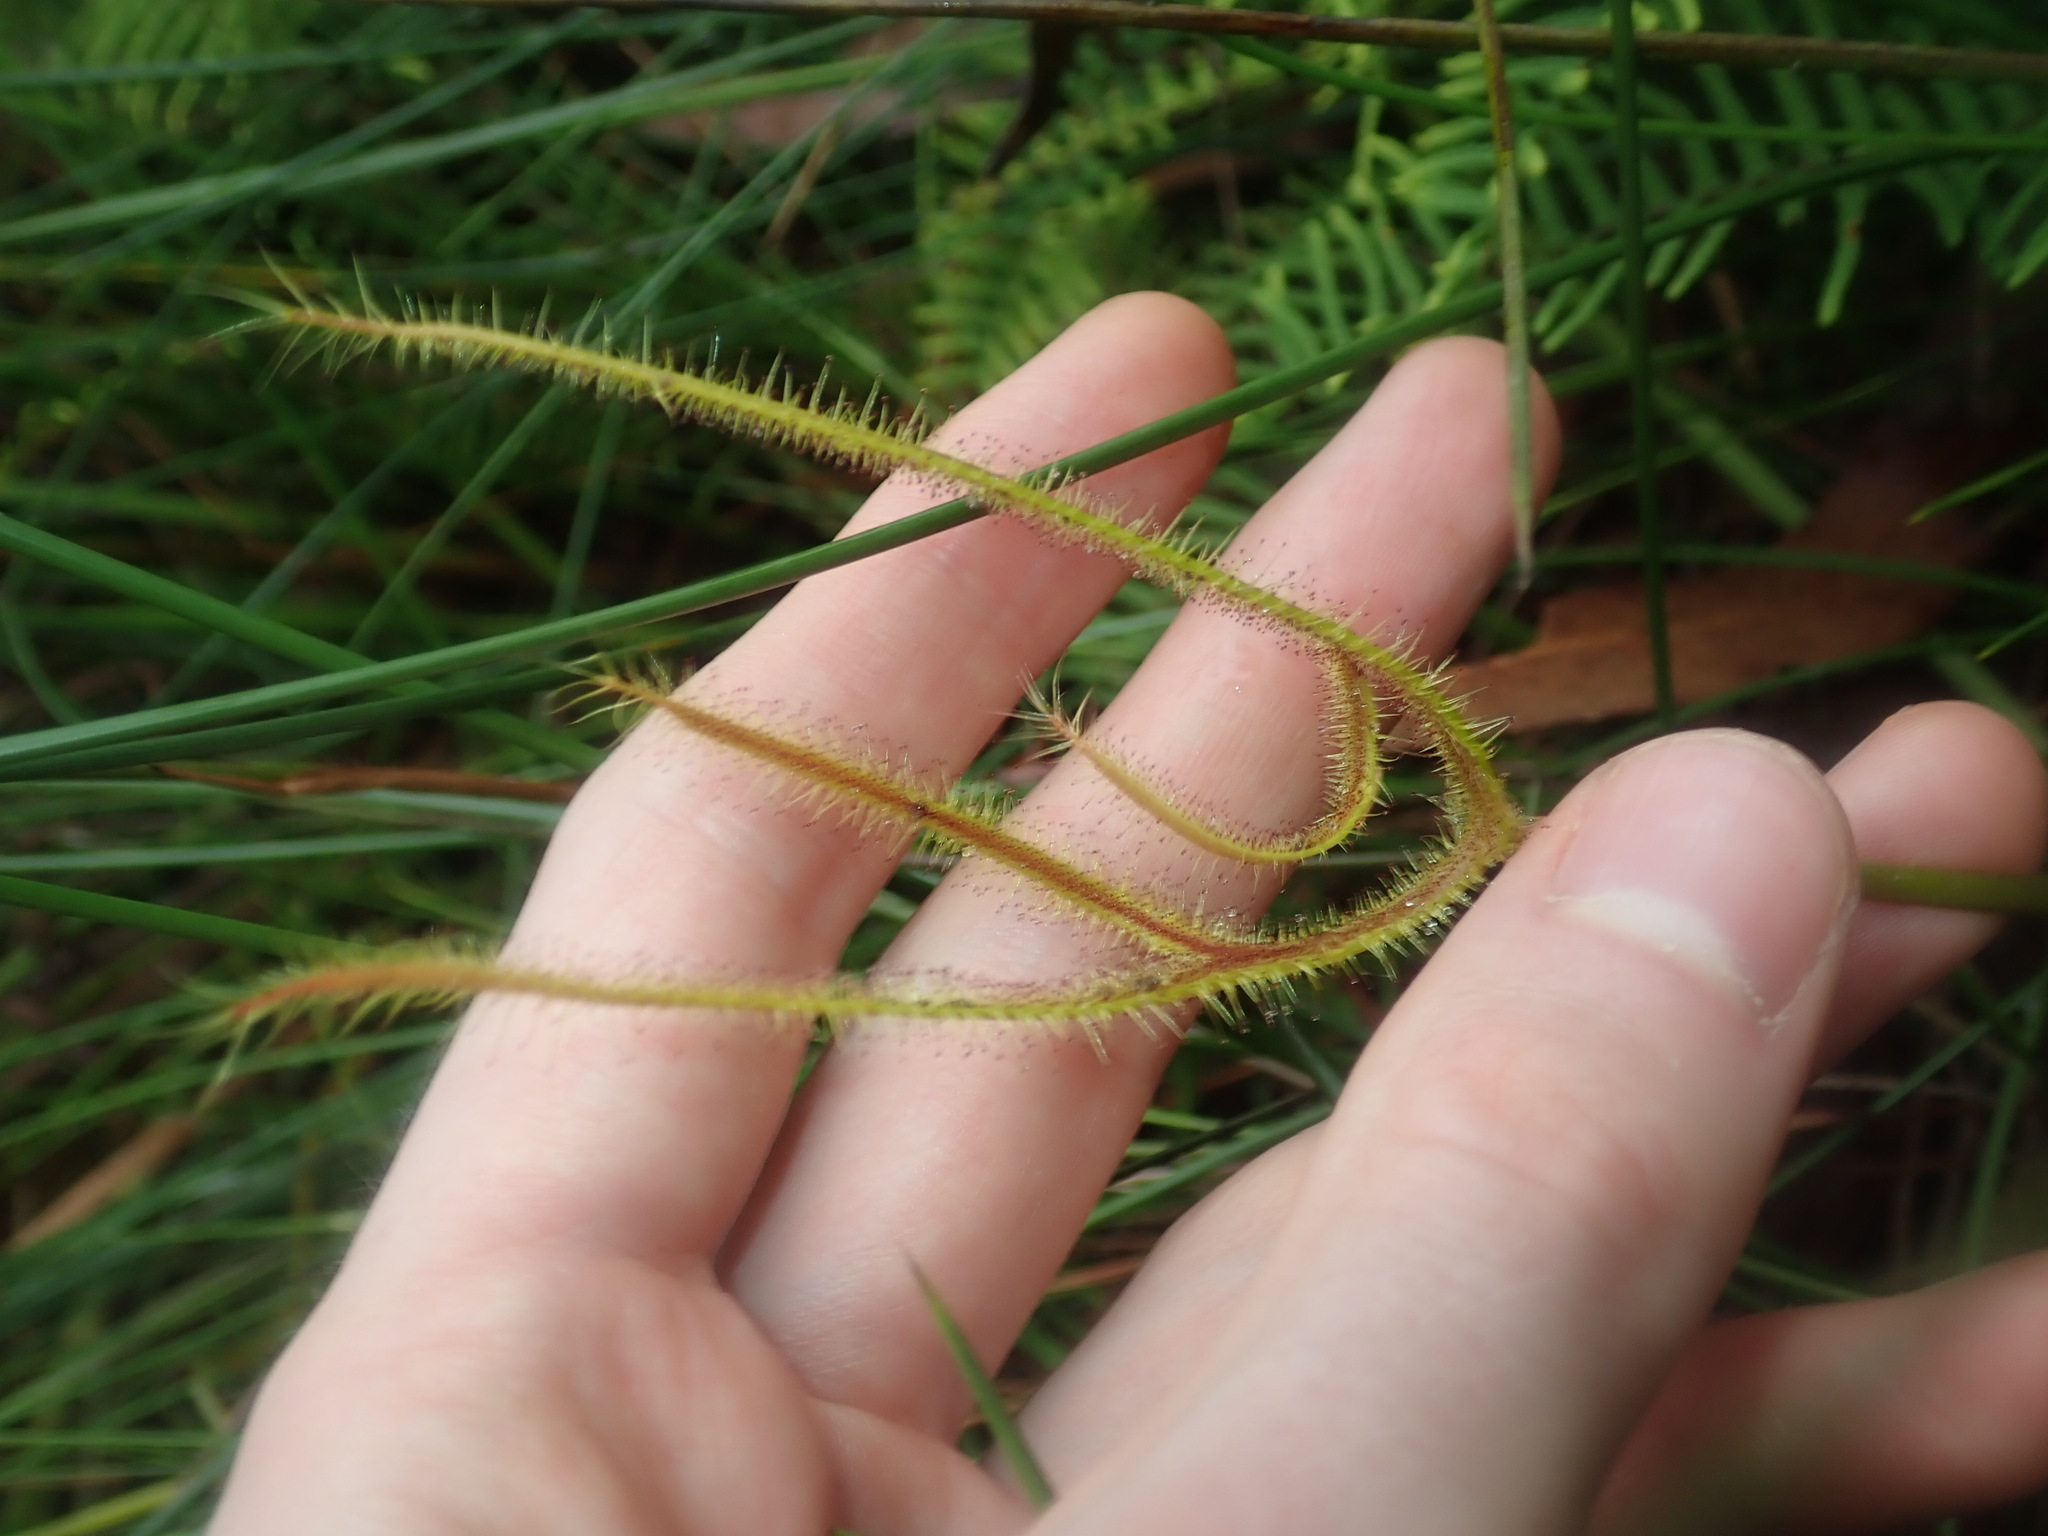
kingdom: Plantae
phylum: Tracheophyta
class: Magnoliopsida
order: Caryophyllales
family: Droseraceae
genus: Drosera
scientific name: Drosera binata
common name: Forked sundew
